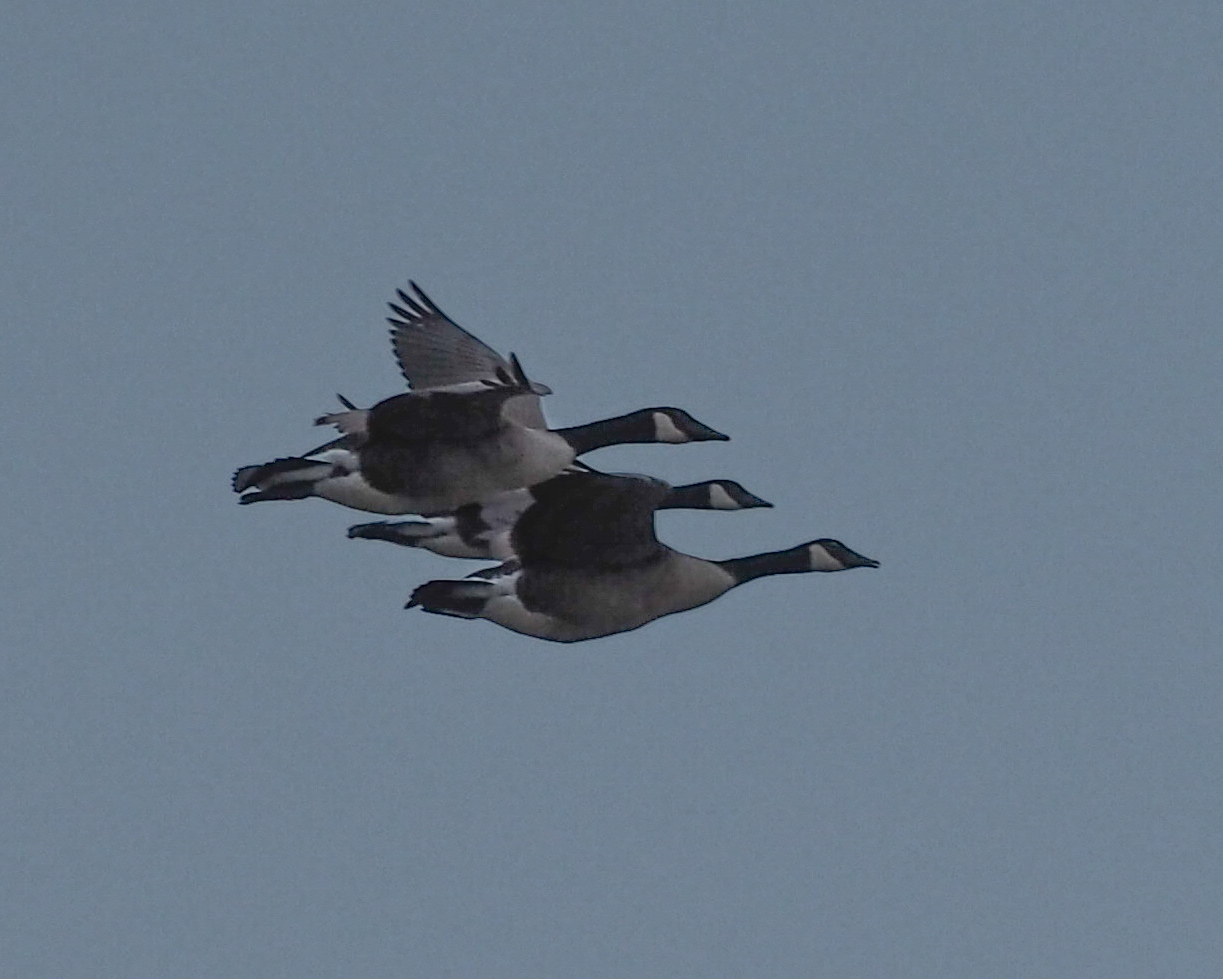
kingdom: Animalia
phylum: Chordata
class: Aves
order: Anseriformes
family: Anatidae
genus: Branta
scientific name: Branta canadensis
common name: Canada goose
